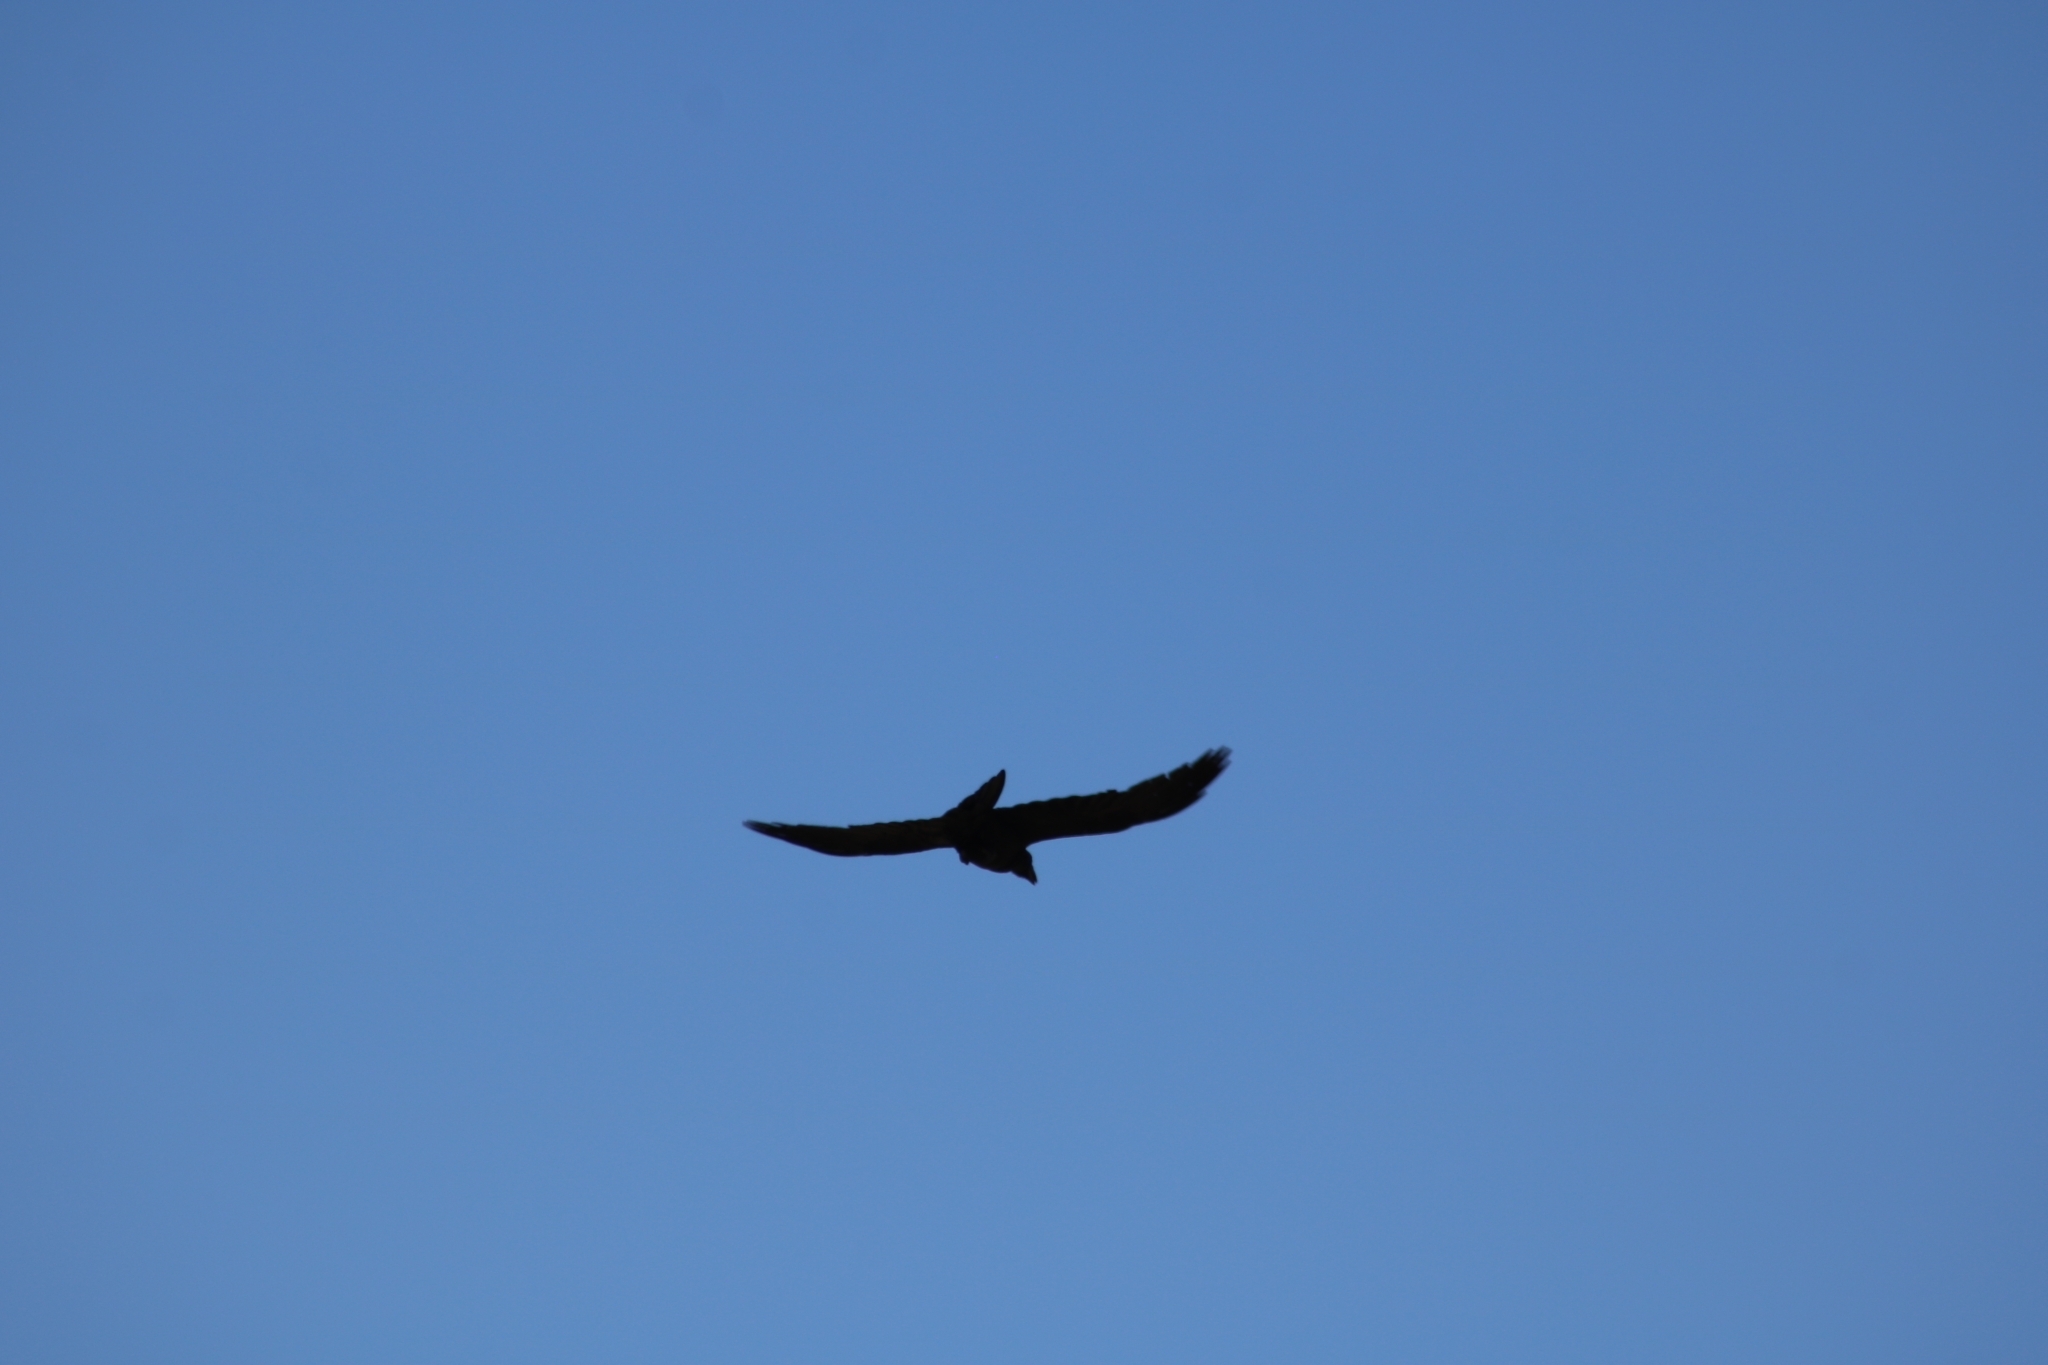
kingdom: Animalia
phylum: Chordata
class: Aves
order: Passeriformes
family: Corvidae
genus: Corvus
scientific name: Corvus corax
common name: Common raven
